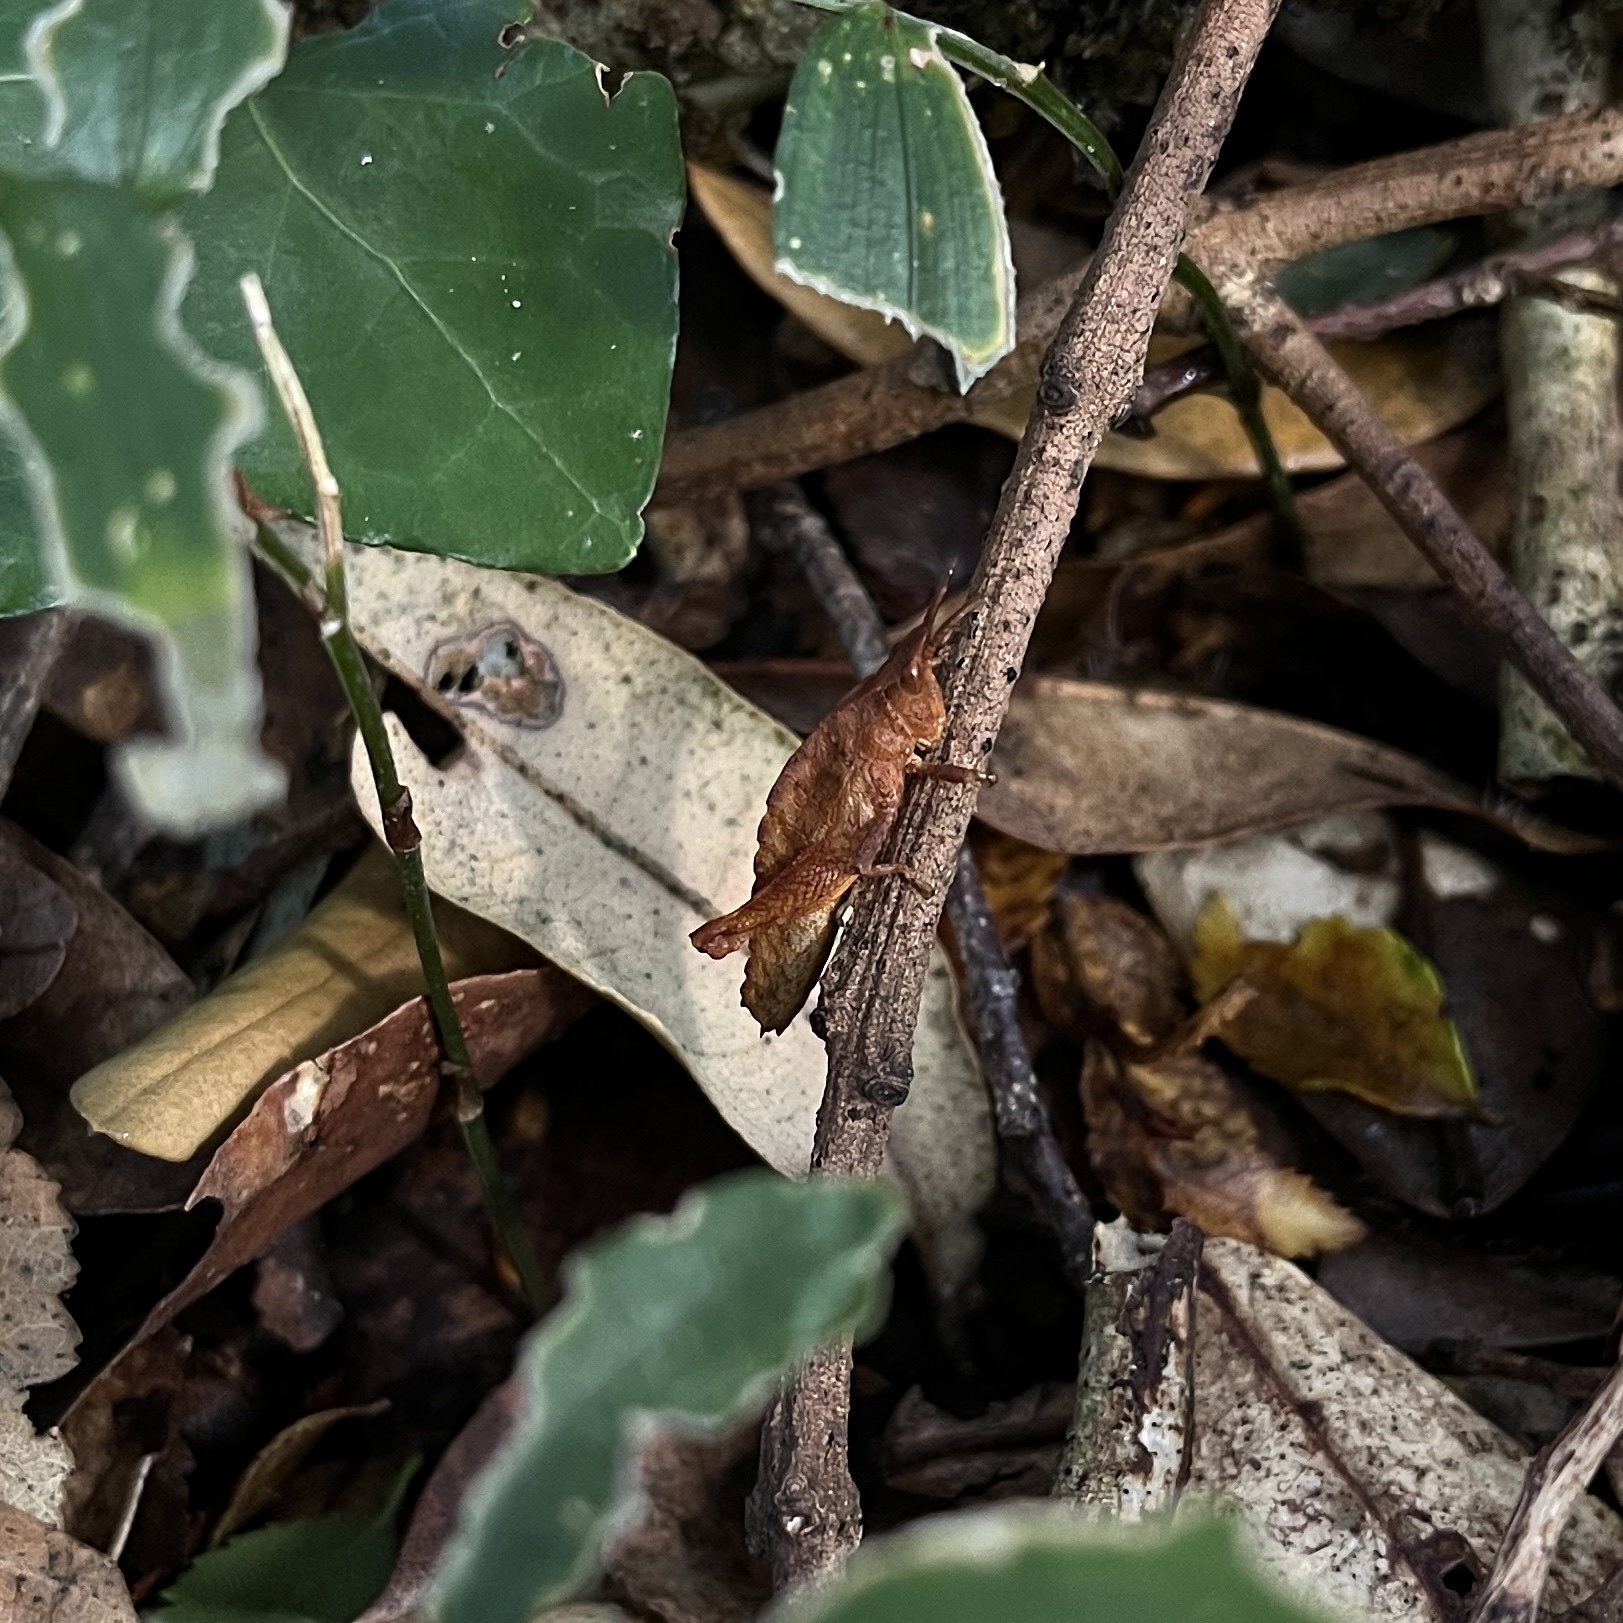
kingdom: Animalia
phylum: Arthropoda
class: Insecta
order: Orthoptera
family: Tristiridae
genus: Tropidostethus
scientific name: Tropidostethus angusticollis
